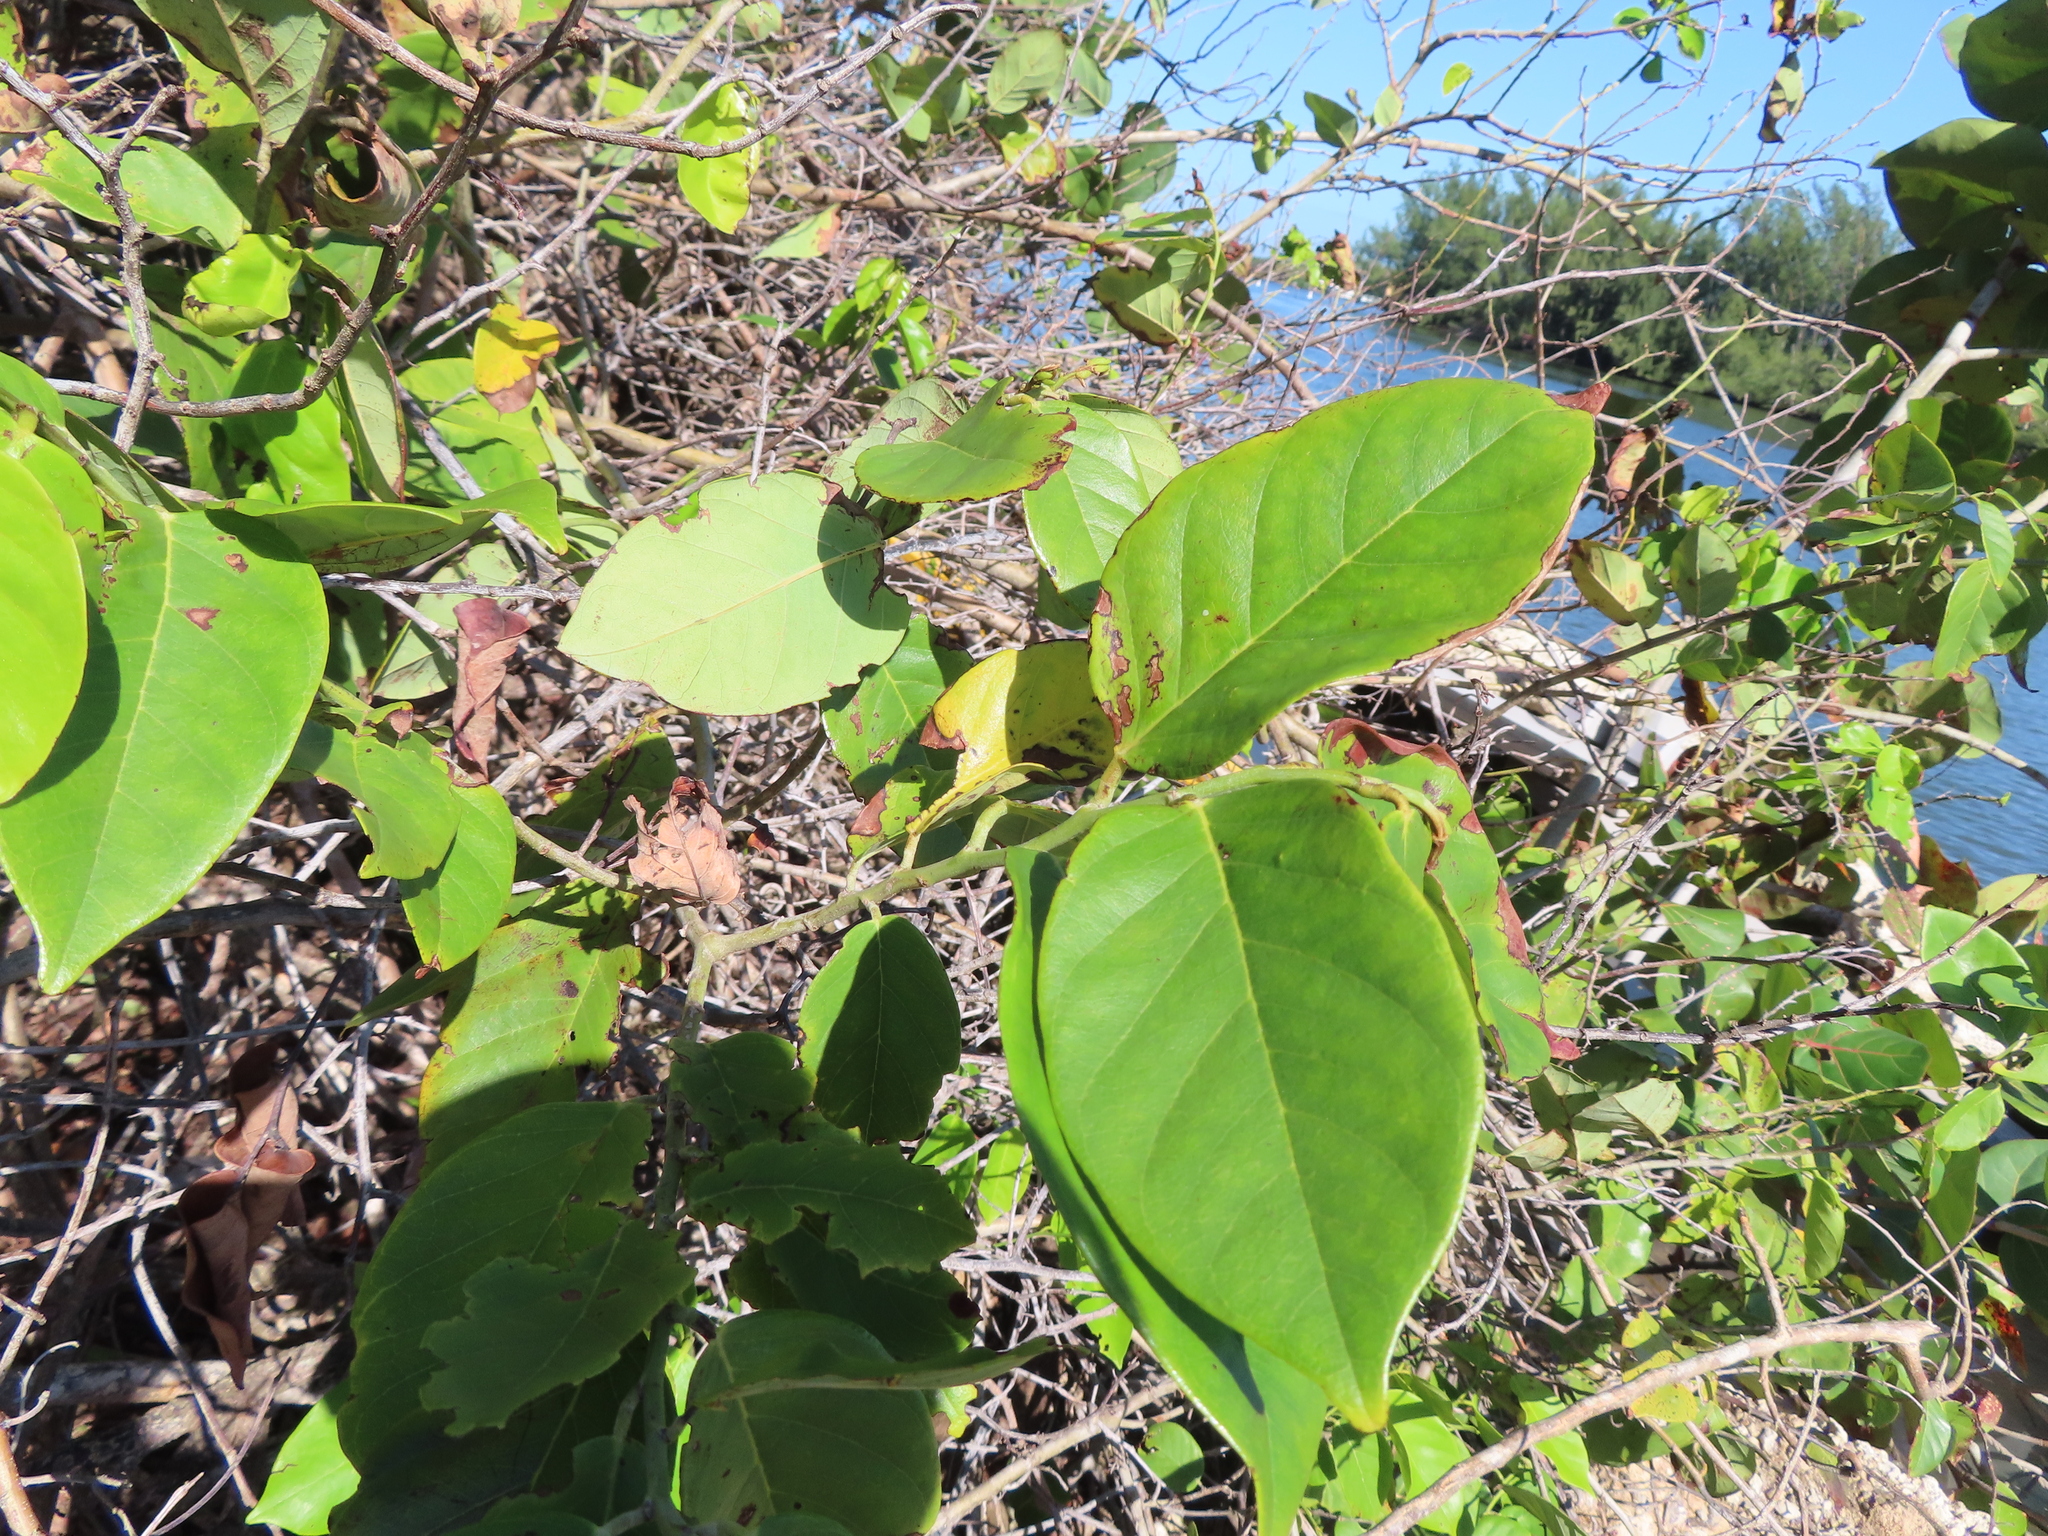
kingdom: Plantae
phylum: Tracheophyta
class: Magnoliopsida
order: Fabales
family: Fabaceae
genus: Dalbergia
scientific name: Dalbergia ecastaphyllum
